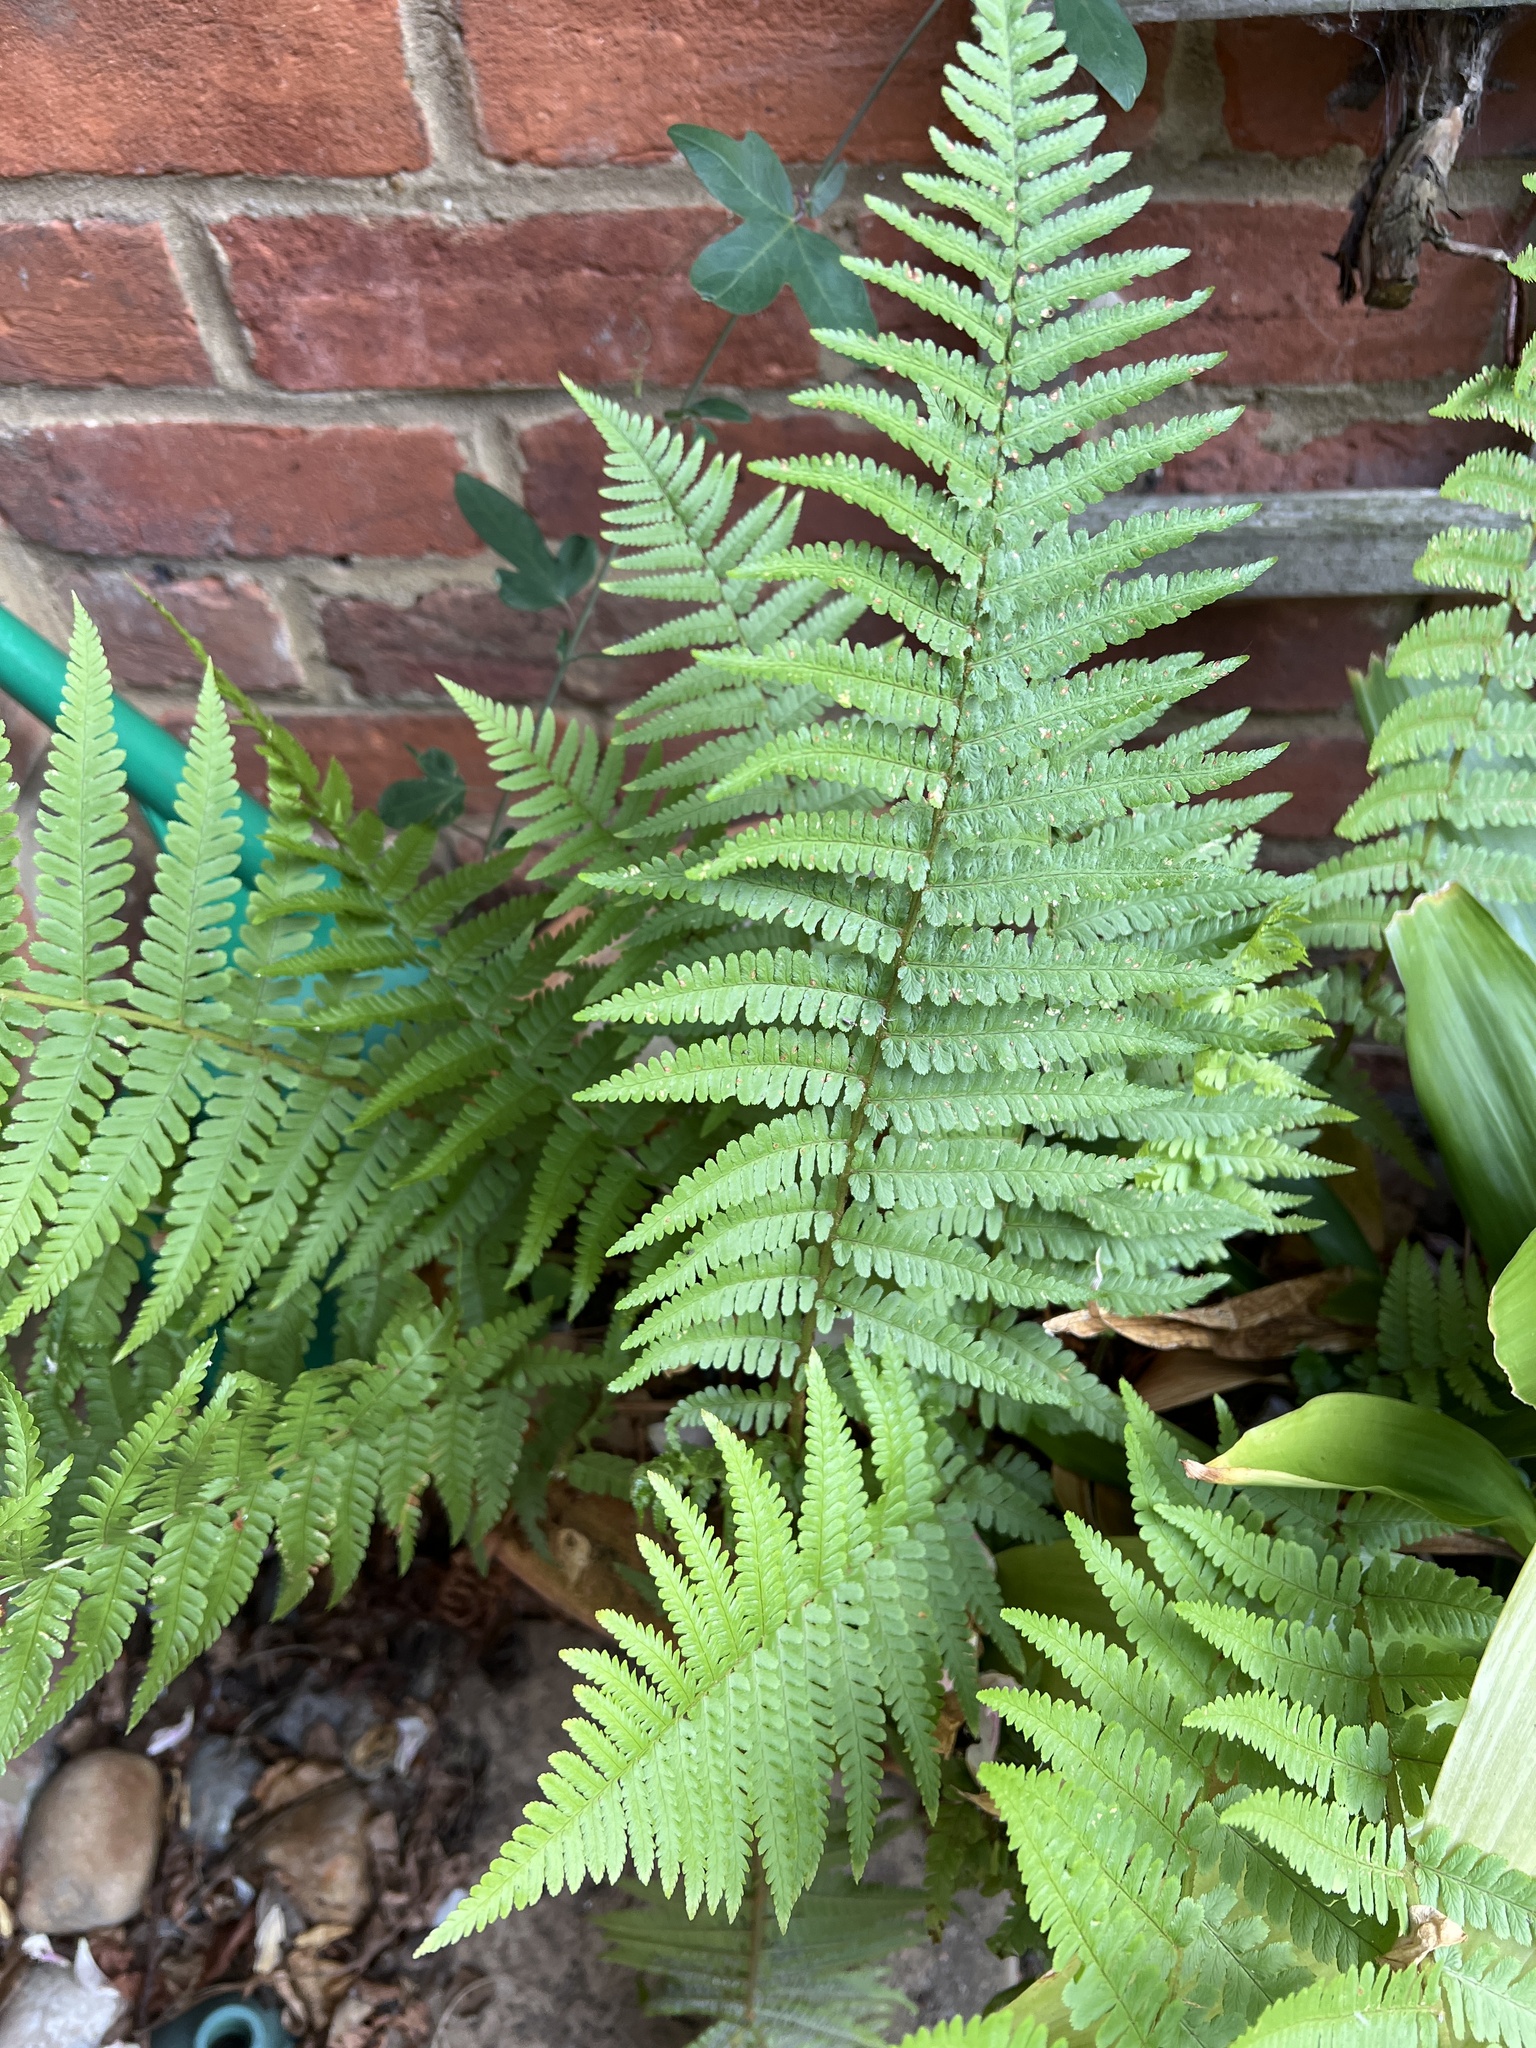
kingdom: Plantae
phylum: Tracheophyta
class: Polypodiopsida
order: Polypodiales
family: Dryopteridaceae
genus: Dryopteris
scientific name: Dryopteris filix-mas
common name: Male fern
